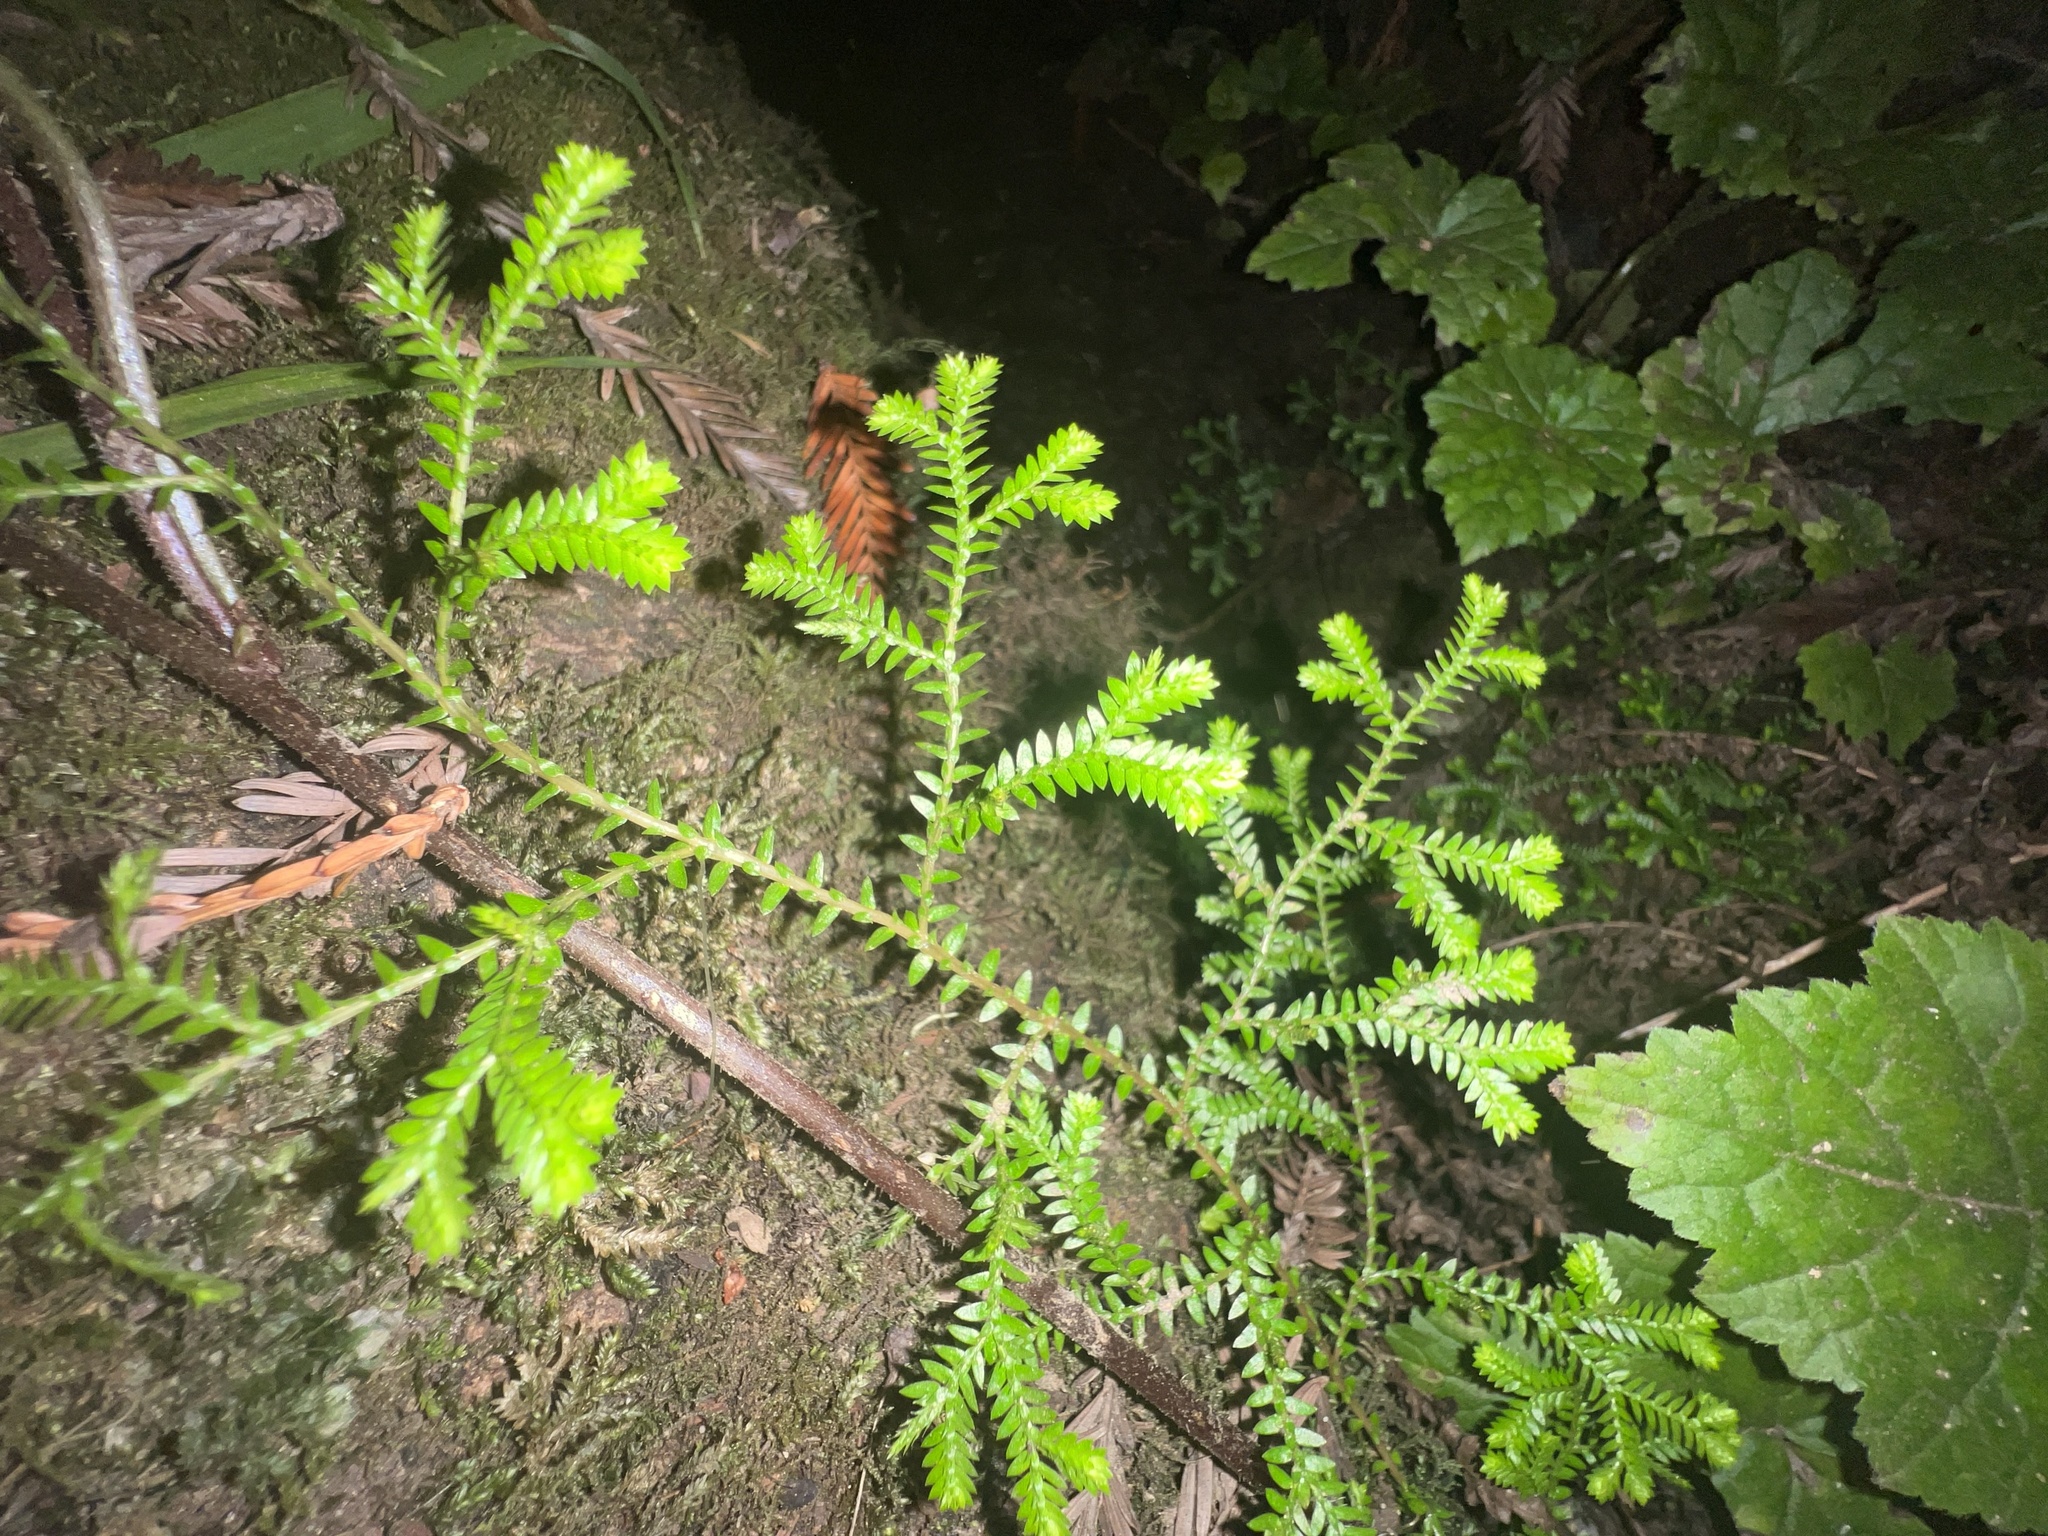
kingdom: Plantae
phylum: Tracheophyta
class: Lycopodiopsida
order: Selaginellales
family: Selaginellaceae
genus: Selaginella
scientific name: Selaginella kraussiana
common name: Krauss' spikemoss
